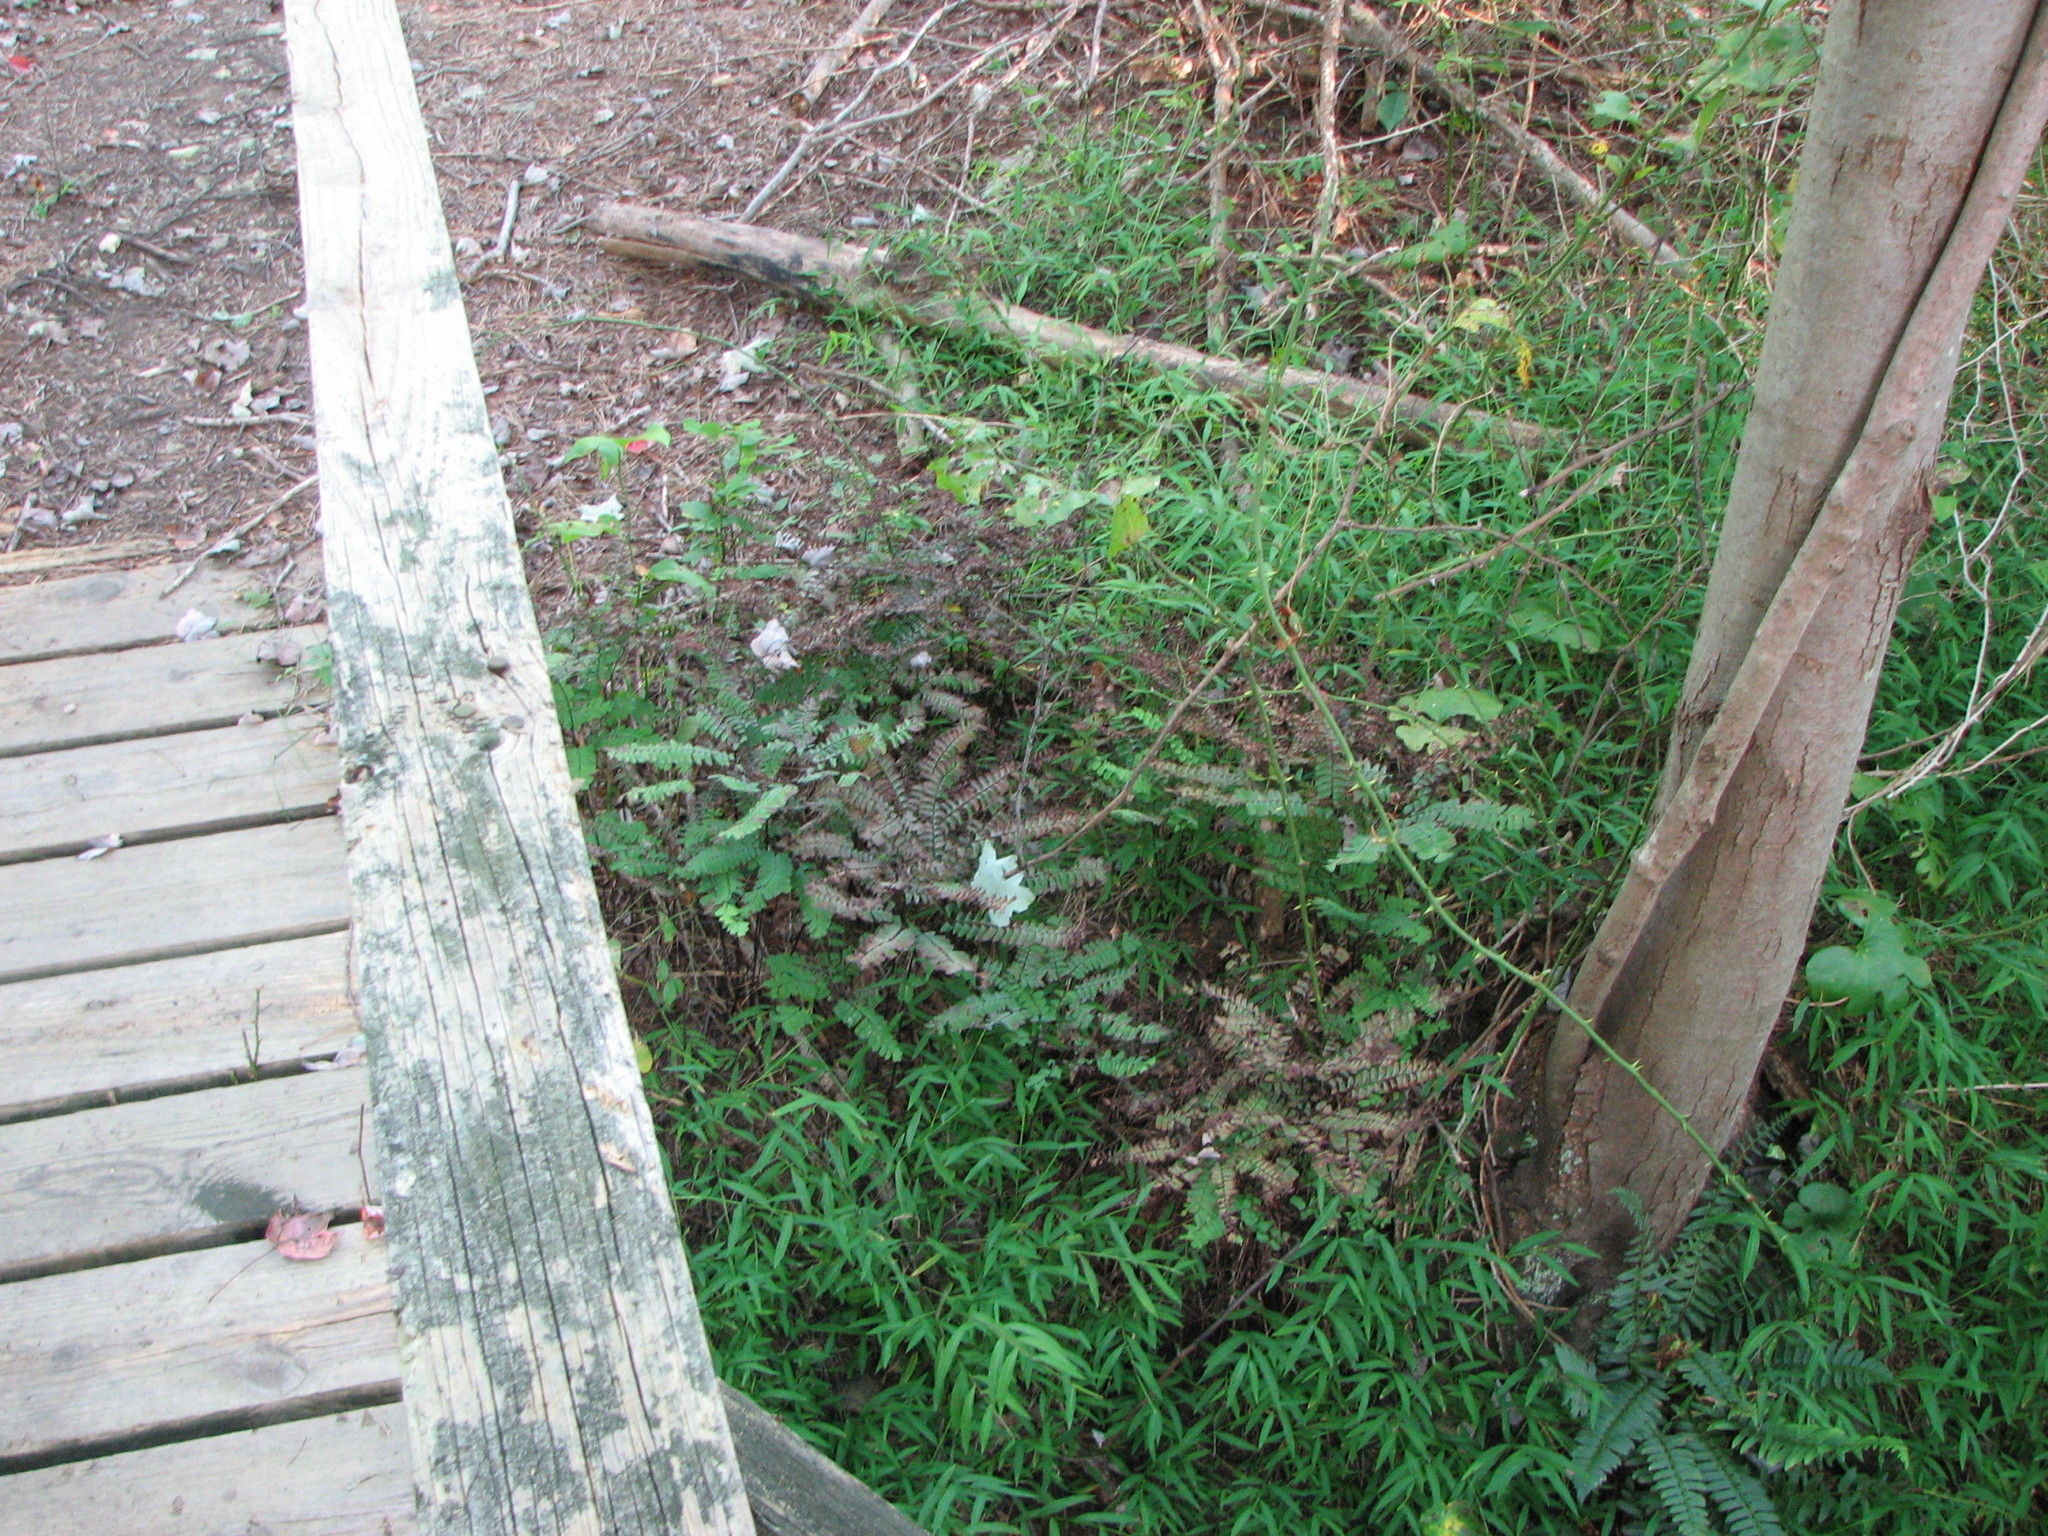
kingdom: Plantae
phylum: Tracheophyta
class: Polypodiopsida
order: Polypodiales
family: Pteridaceae
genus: Adiantum
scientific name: Adiantum pedatum
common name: Five-finger fern
